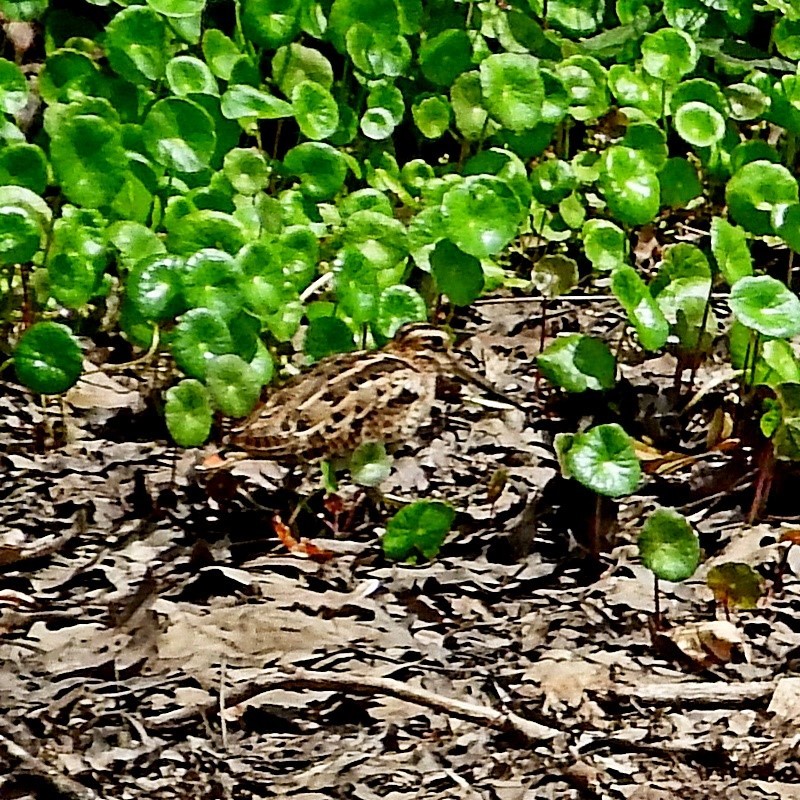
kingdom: Animalia
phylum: Chordata
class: Aves
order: Charadriiformes
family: Scolopacidae
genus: Gallinago
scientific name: Gallinago hardwickii
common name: Latham's snipe
